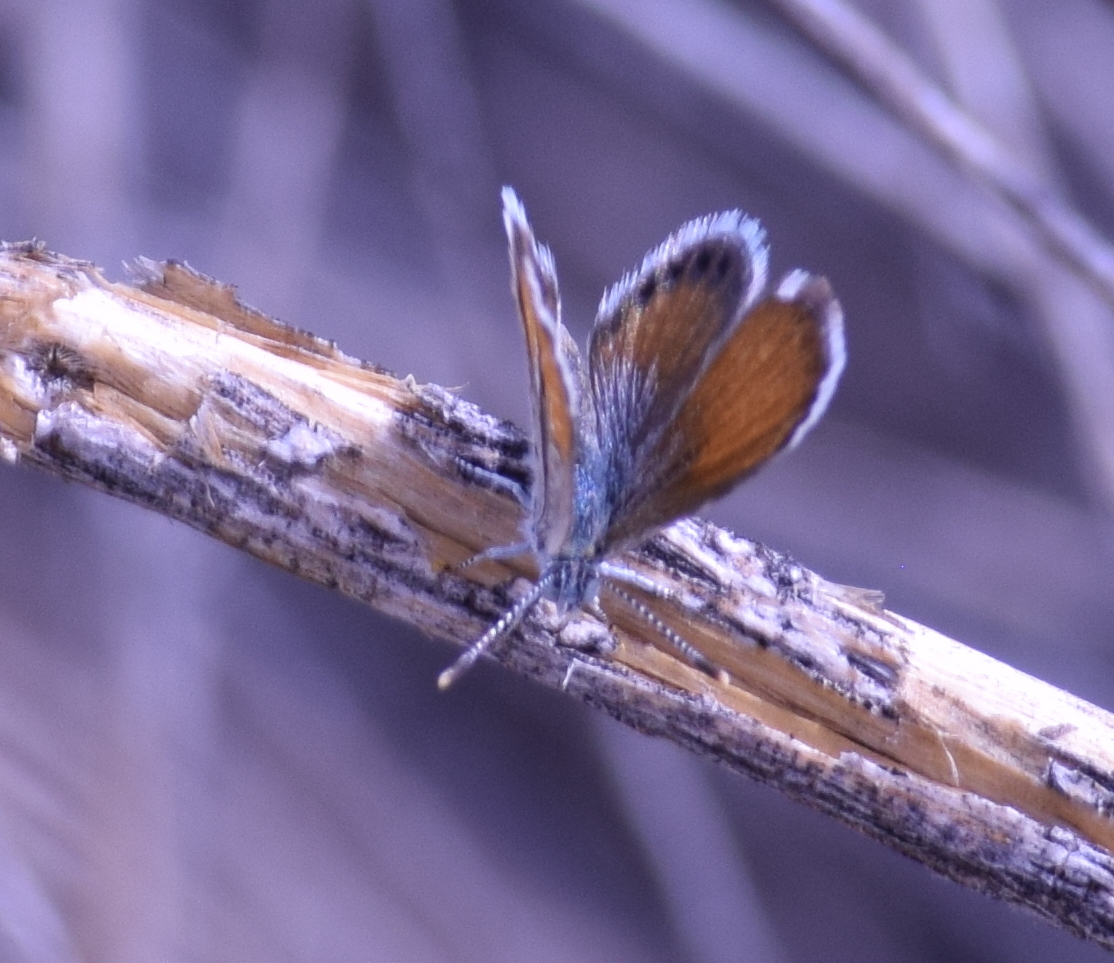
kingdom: Animalia
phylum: Arthropoda
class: Insecta
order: Lepidoptera
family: Lycaenidae
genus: Brephidium
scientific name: Brephidium exilis
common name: Pygmy blue
